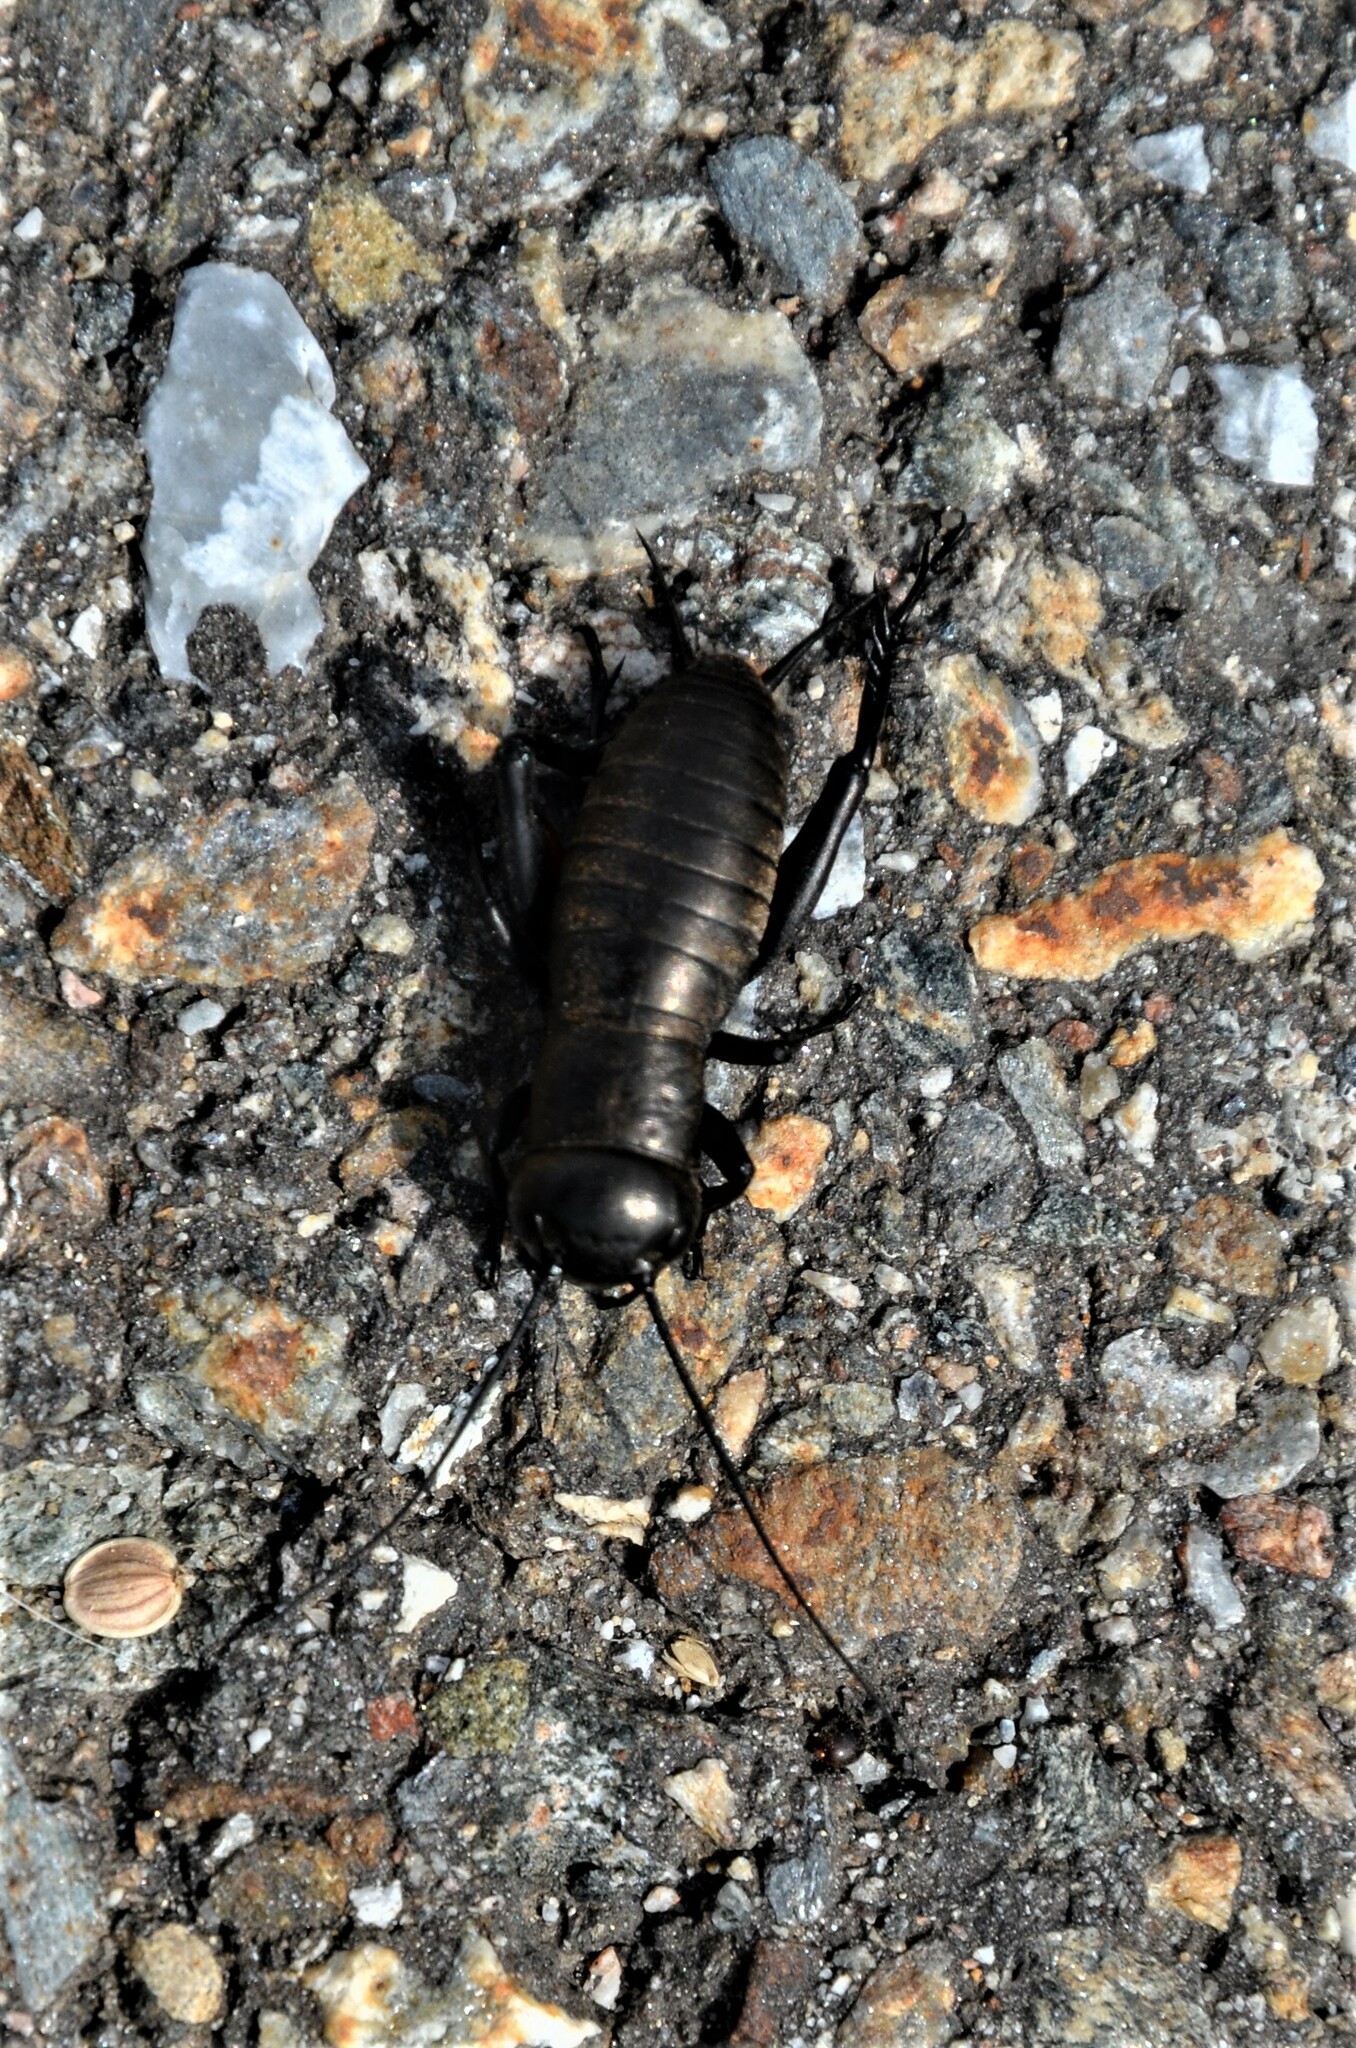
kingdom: Animalia
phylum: Arthropoda
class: Insecta
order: Orthoptera
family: Gryllidae
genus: Gryllus
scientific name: Gryllus campestris
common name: Field cricket
